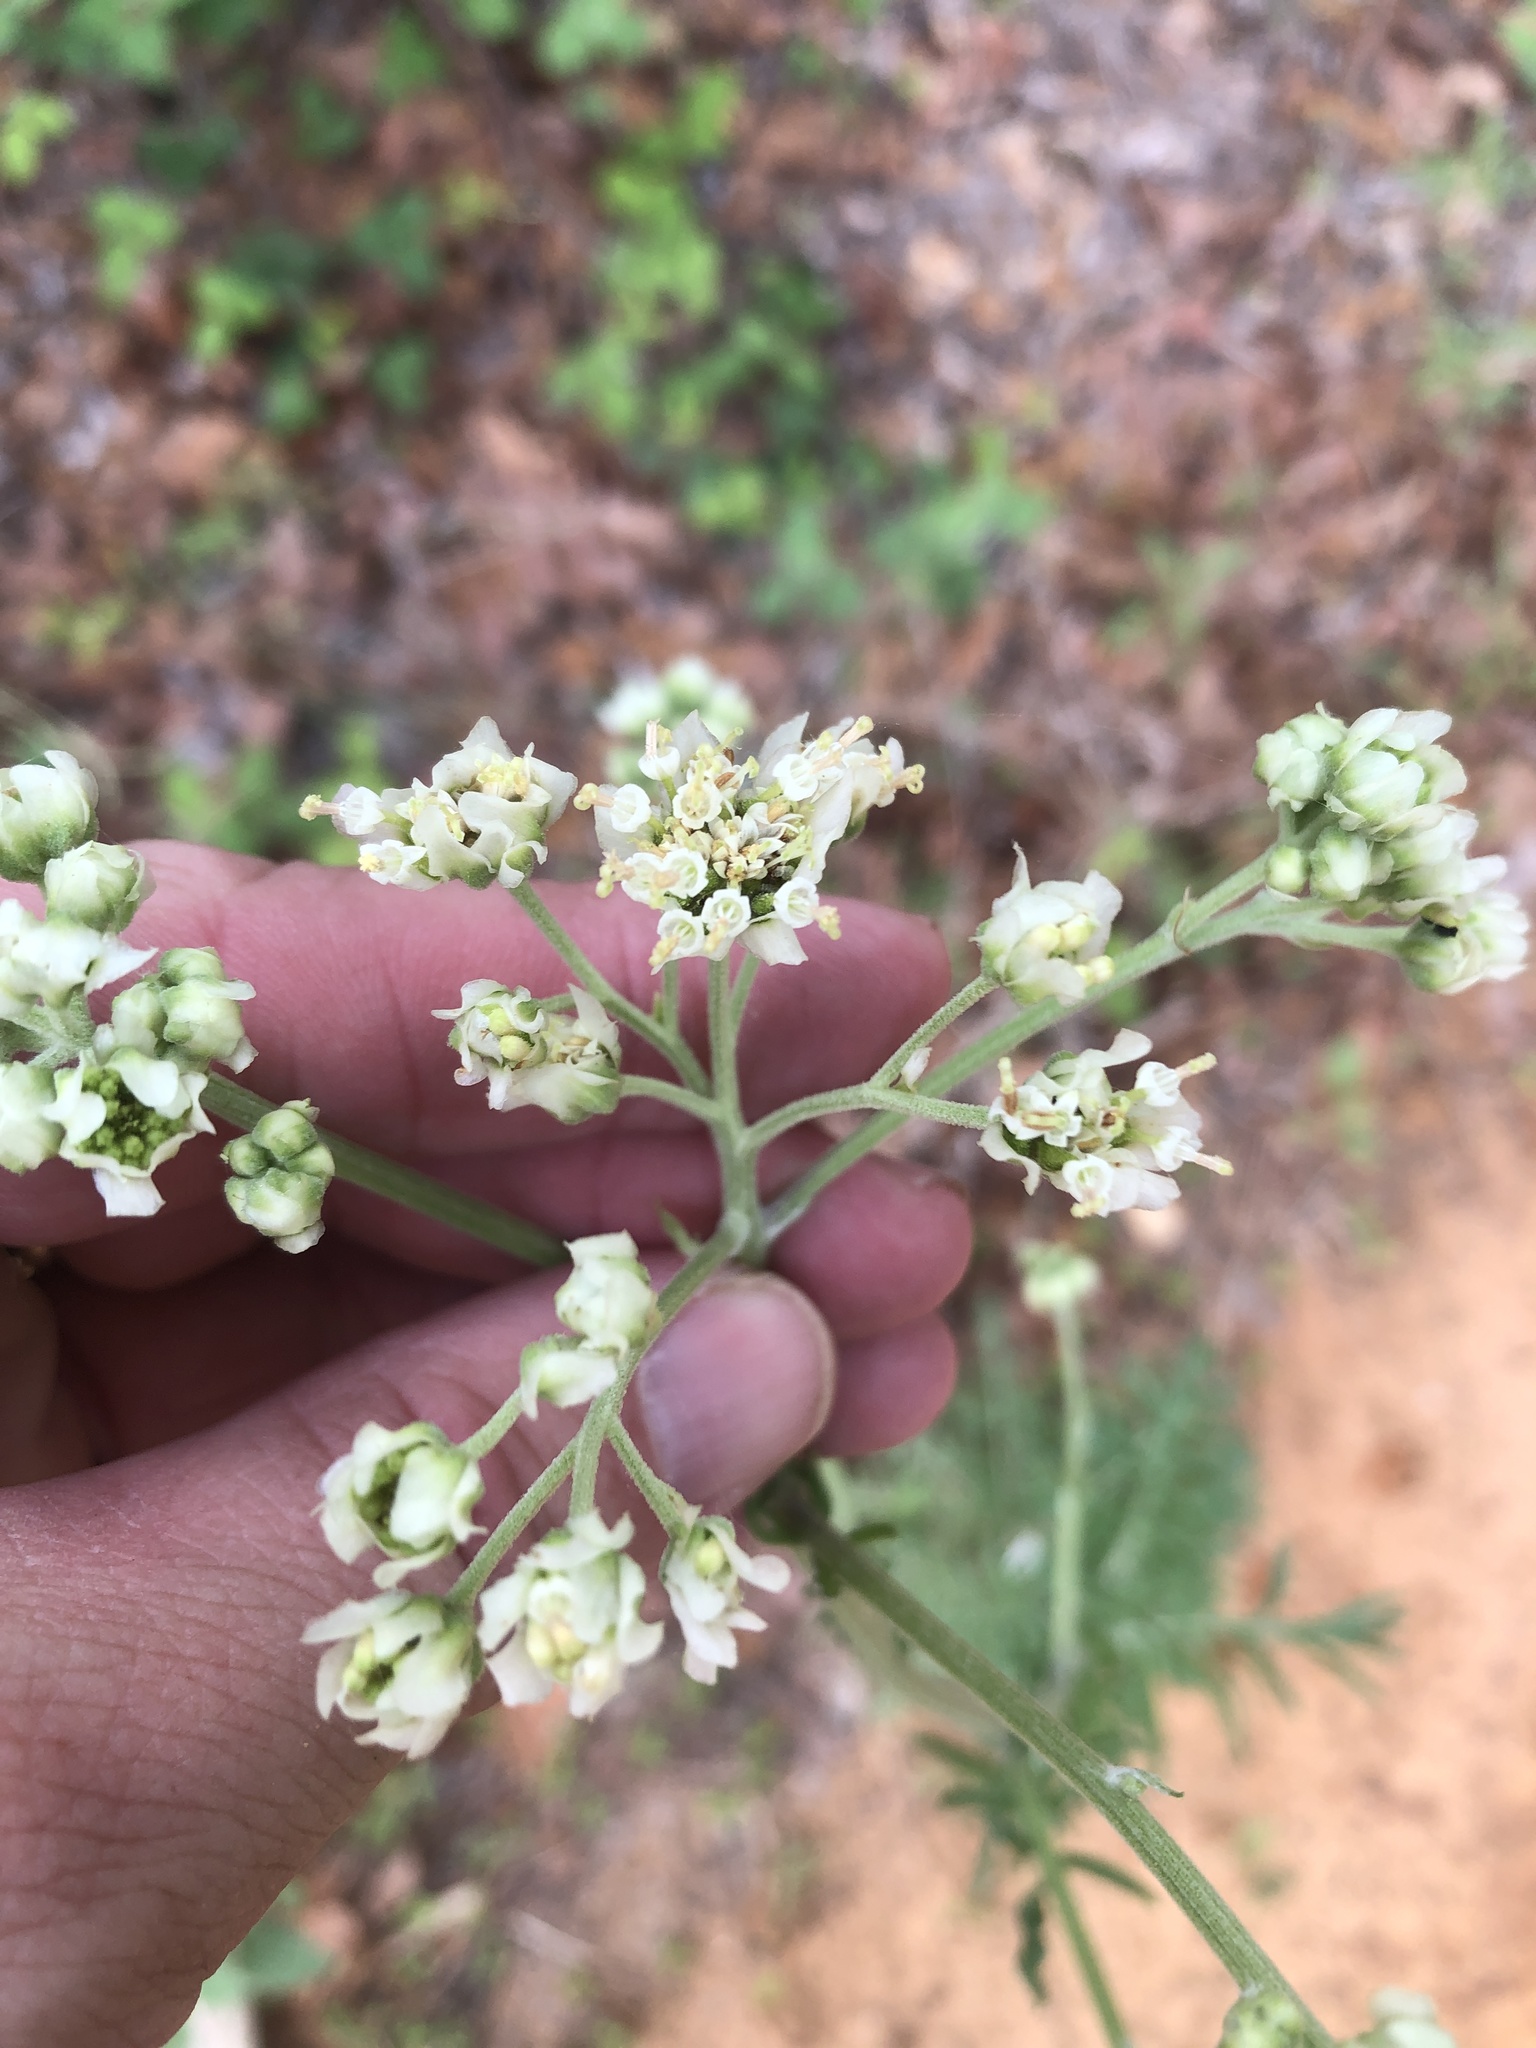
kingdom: Plantae
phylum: Tracheophyta
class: Magnoliopsida
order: Asterales
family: Asteraceae
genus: Hymenopappus
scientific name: Hymenopappus scabiosaeus
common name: Carolina woollywhite
